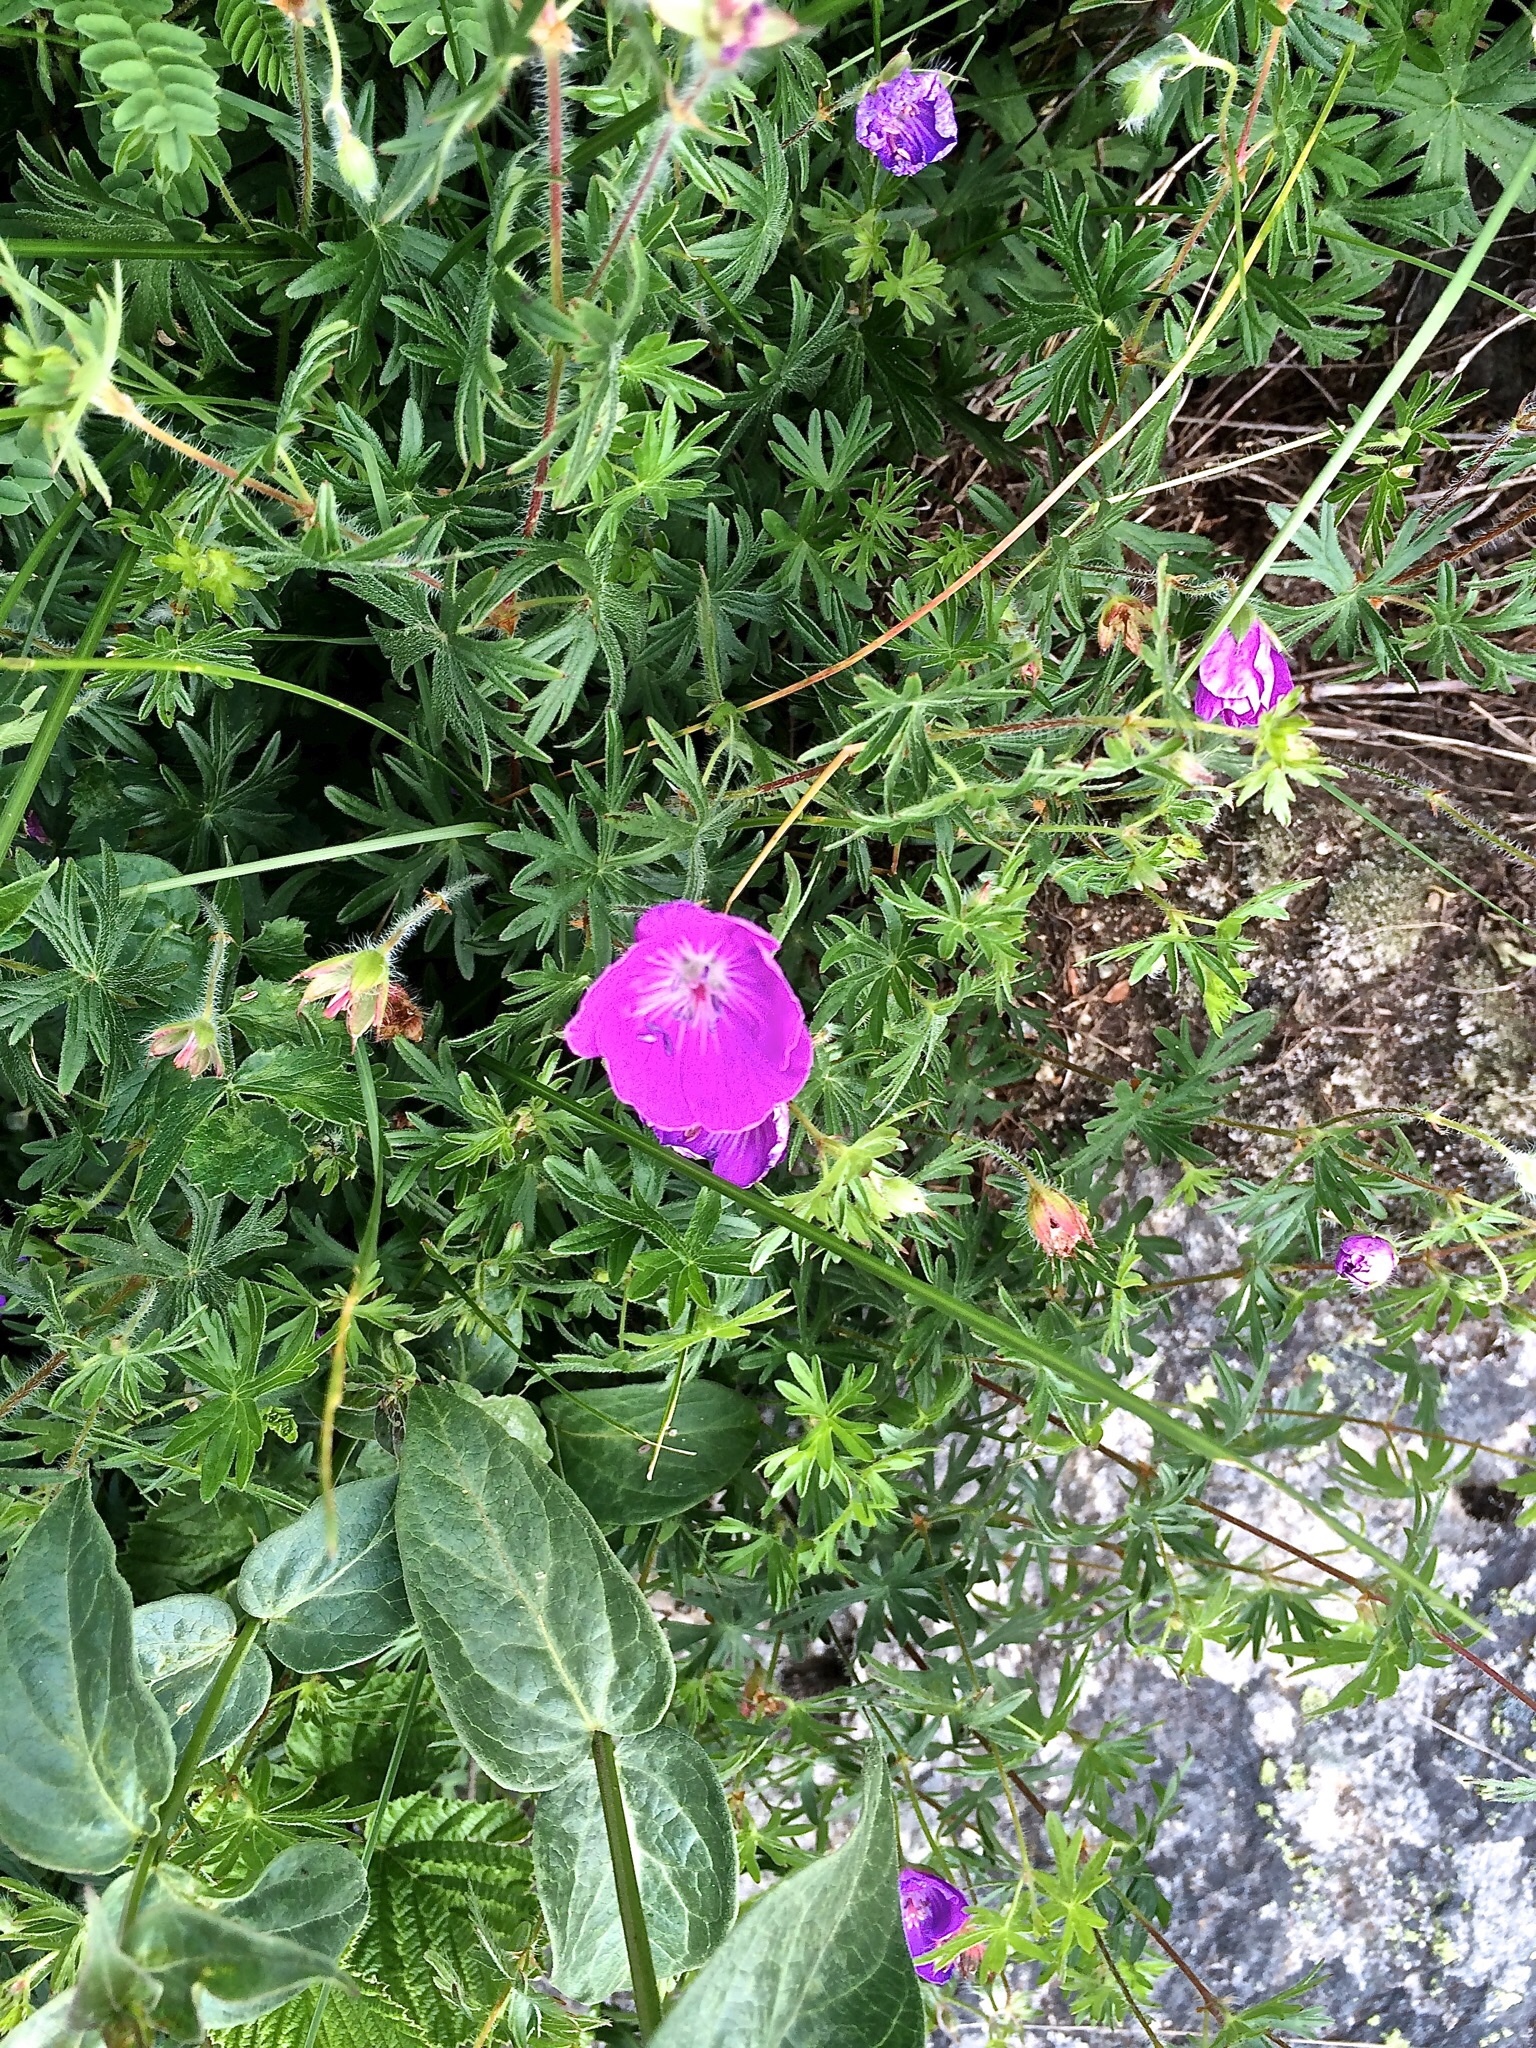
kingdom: Plantae
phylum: Tracheophyta
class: Magnoliopsida
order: Geraniales
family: Geraniaceae
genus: Geranium
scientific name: Geranium sanguineum
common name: Bloody crane's-bill
